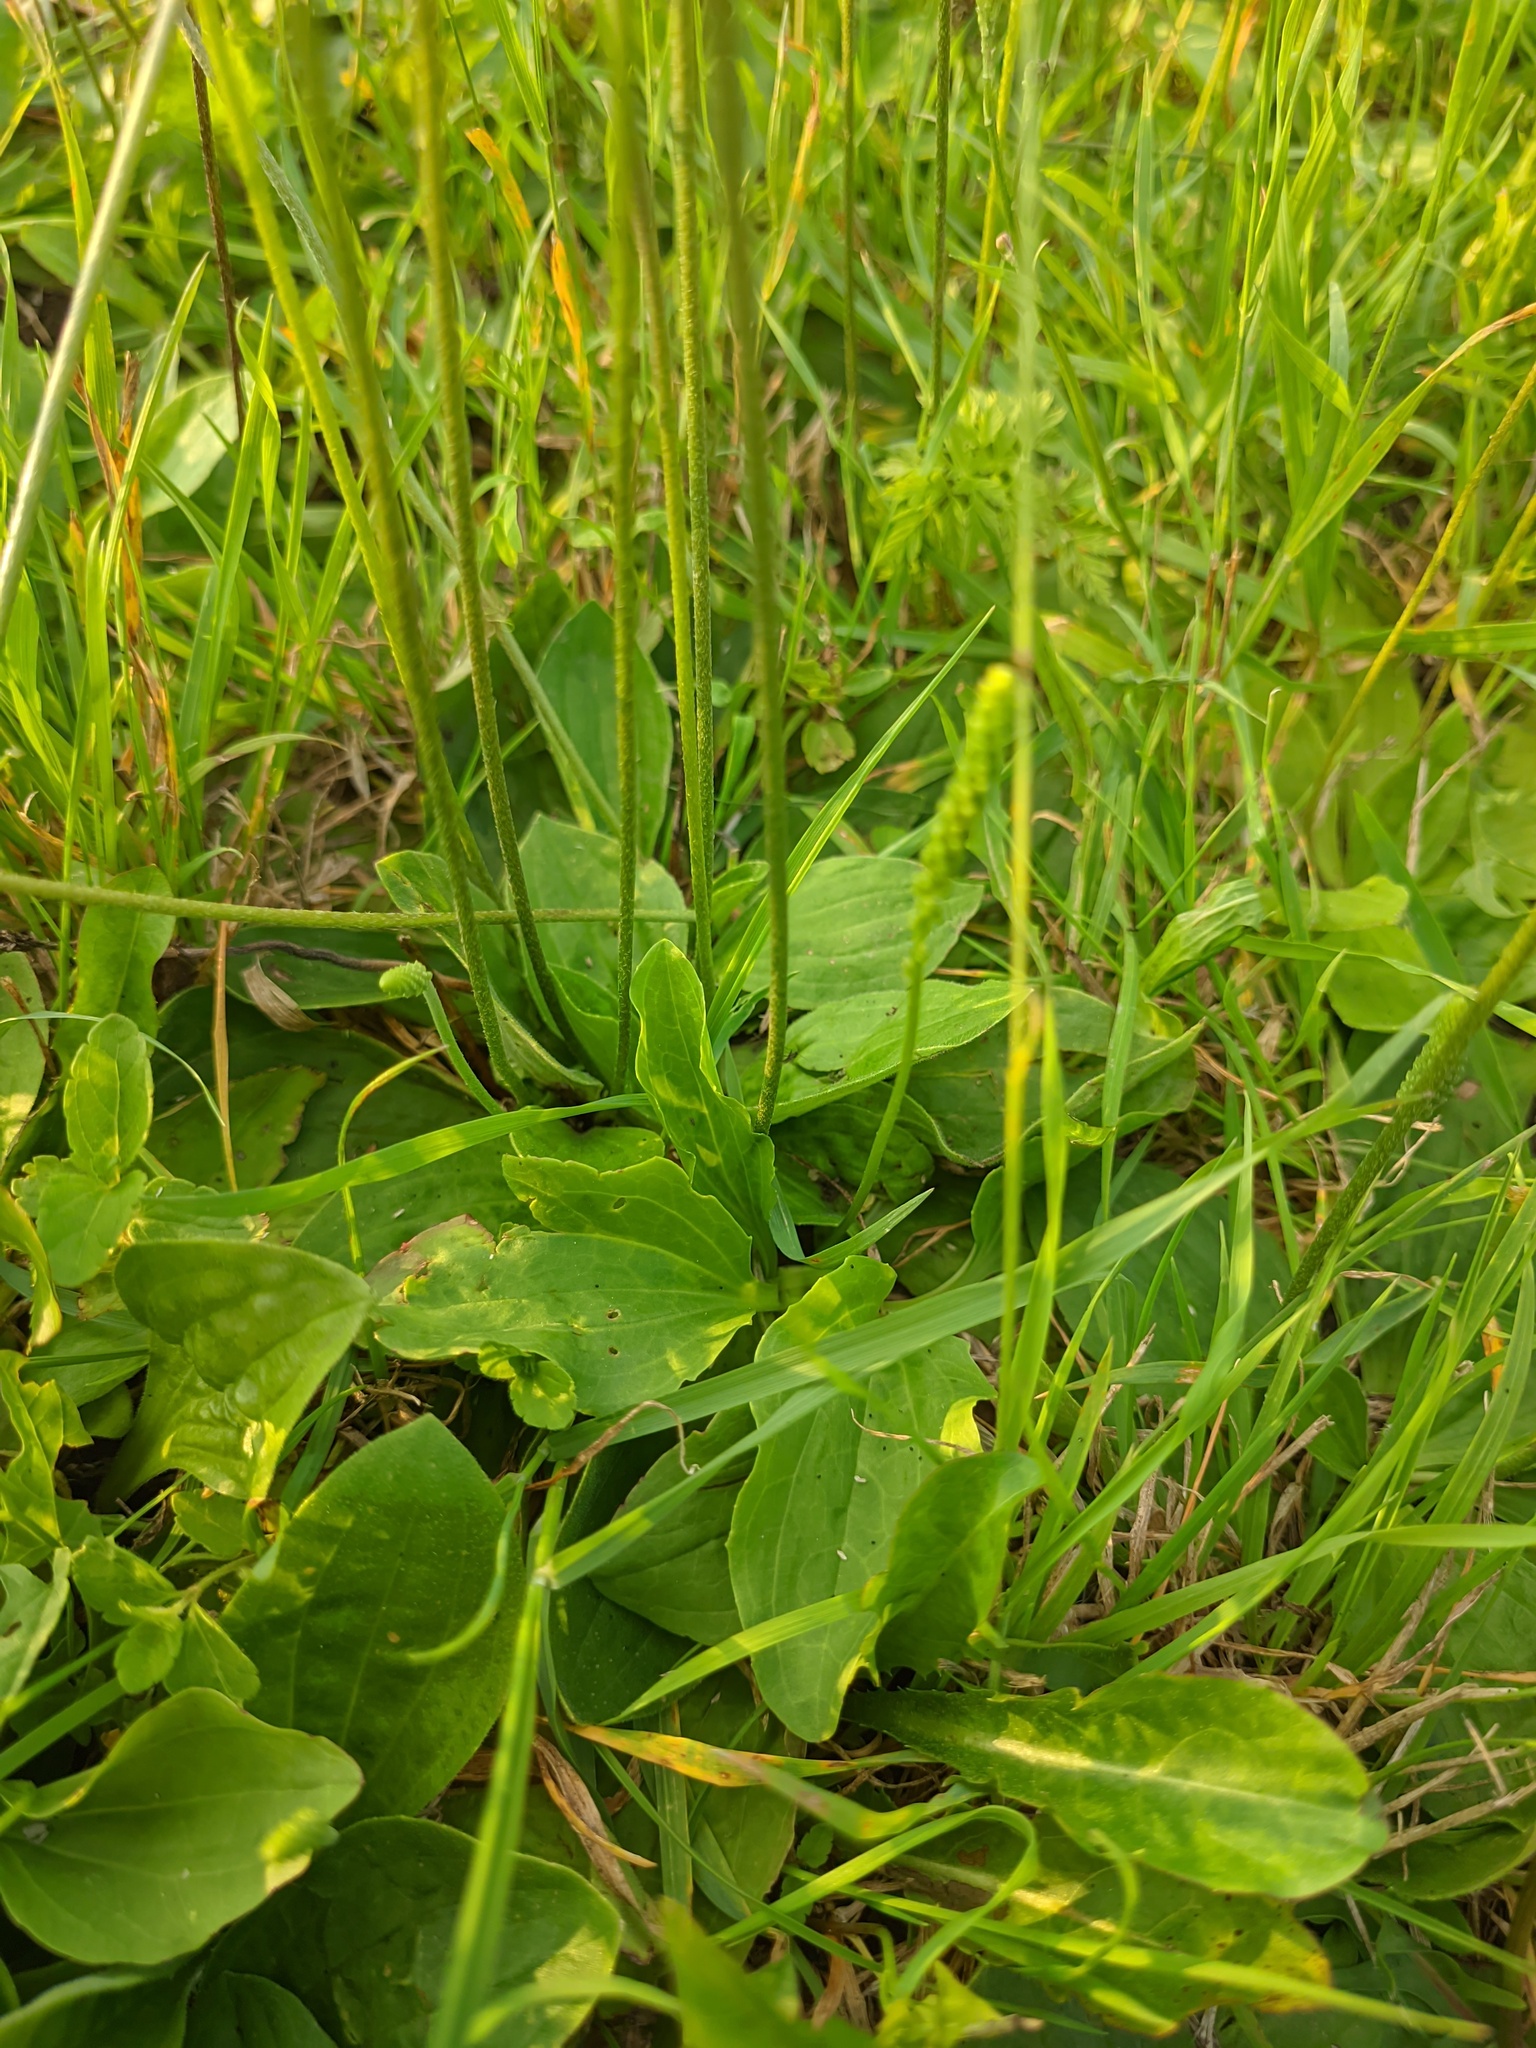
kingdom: Plantae
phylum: Tracheophyta
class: Magnoliopsida
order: Lamiales
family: Plantaginaceae
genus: Plantago
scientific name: Plantago media
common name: Hoary plantain
